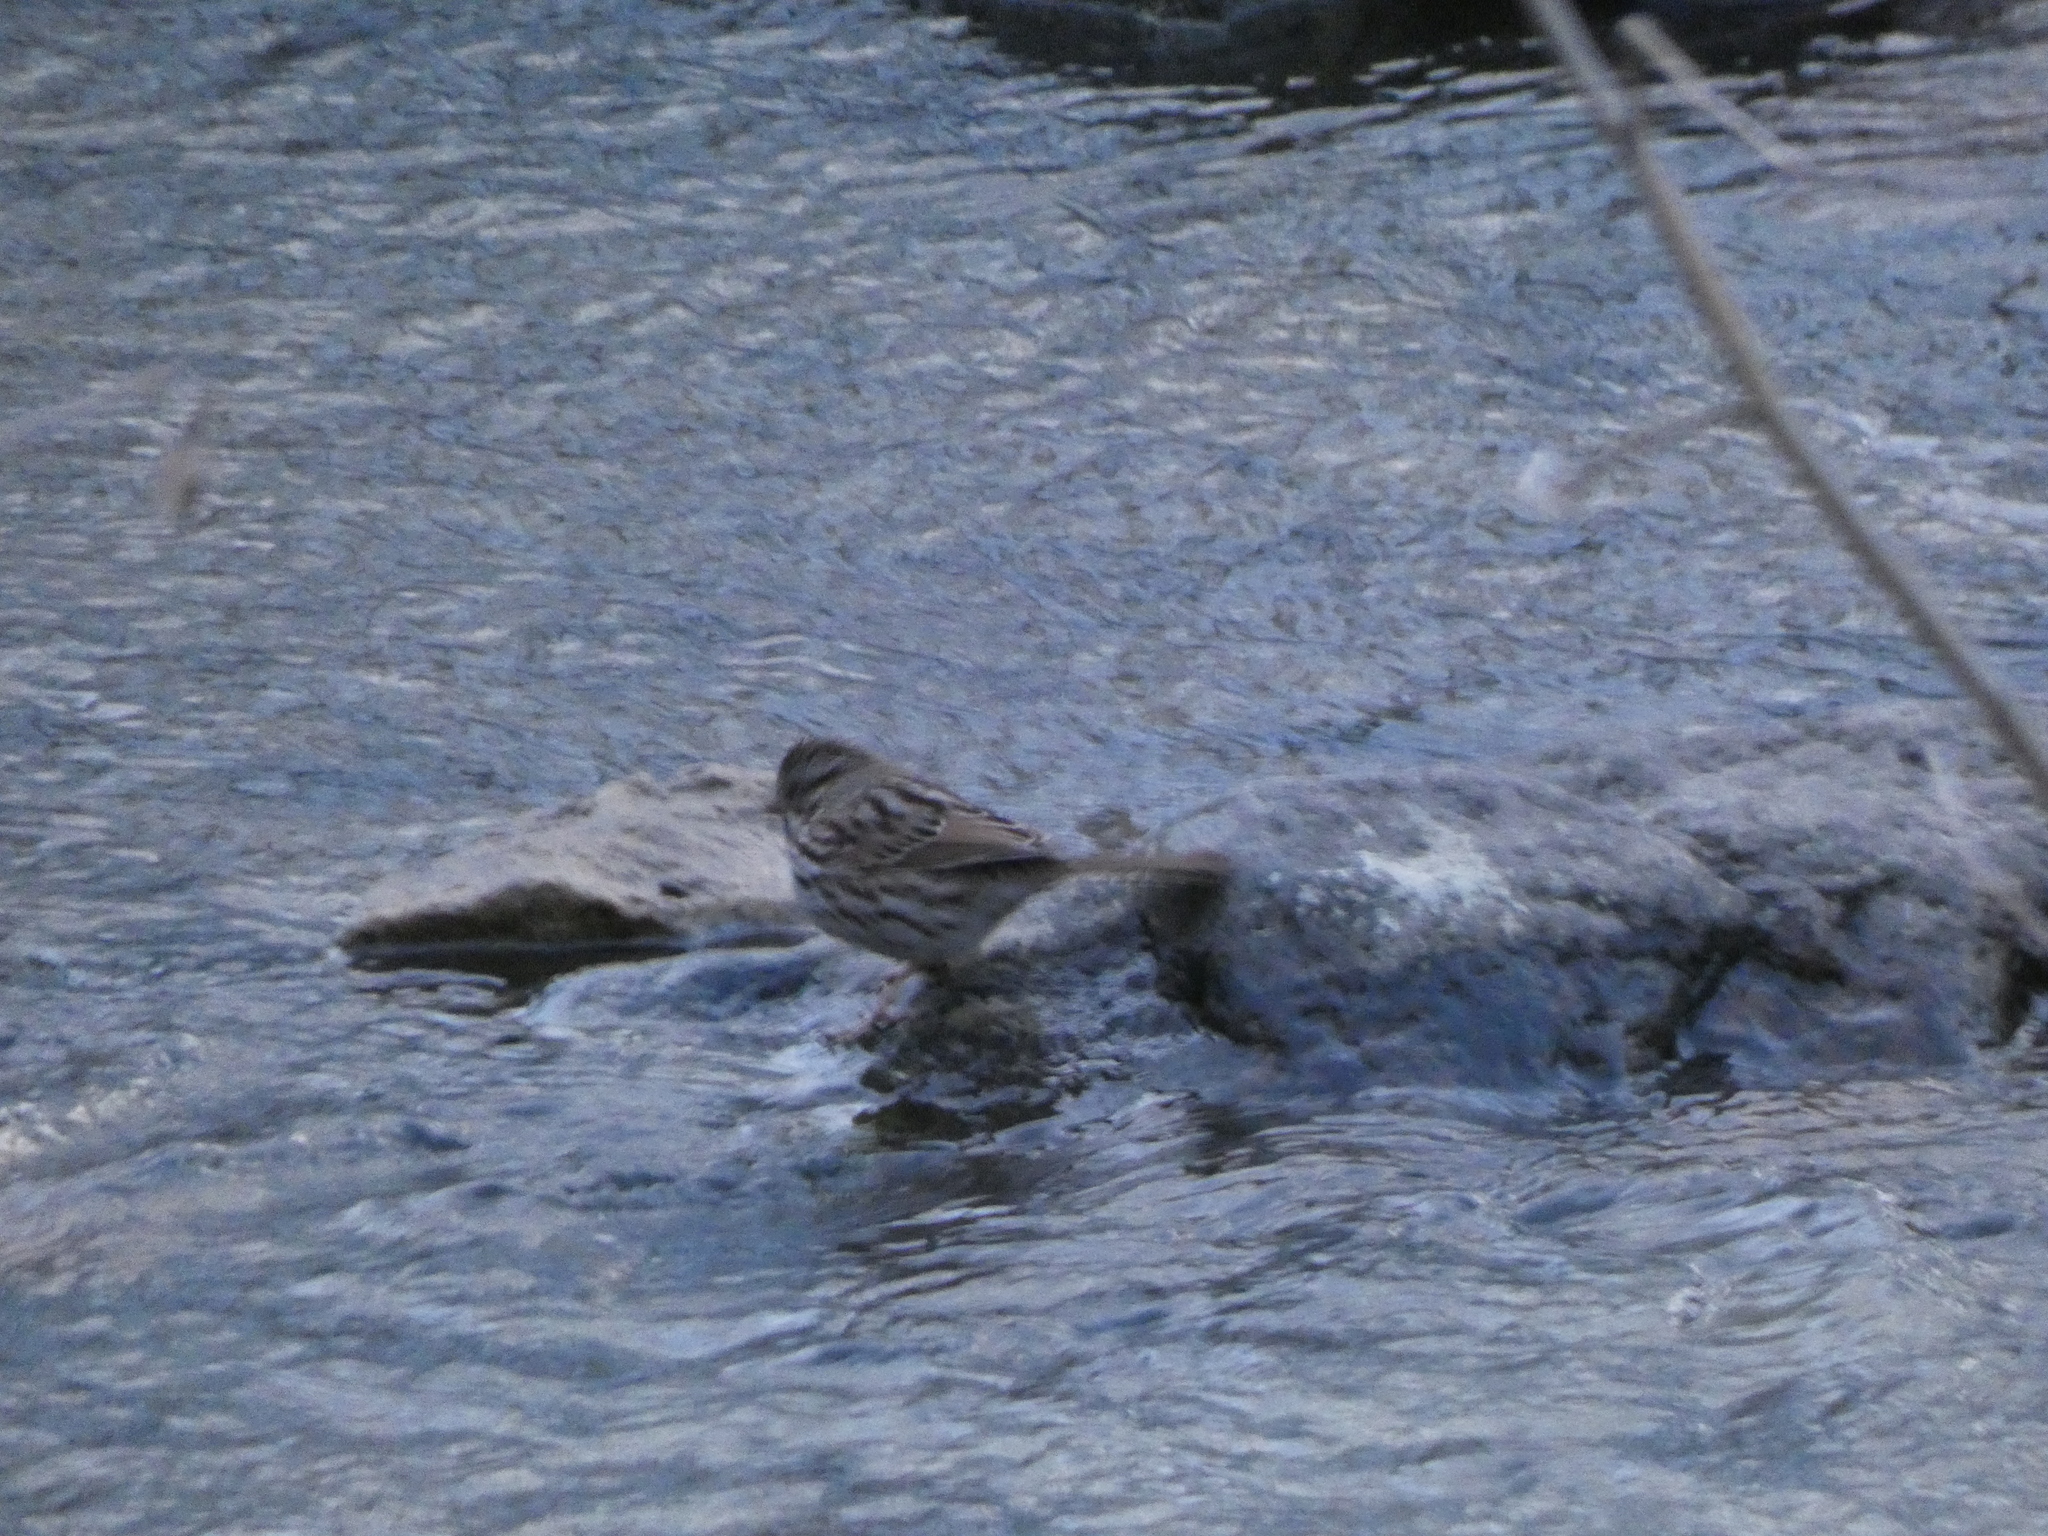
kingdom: Animalia
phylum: Chordata
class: Aves
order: Passeriformes
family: Passerellidae
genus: Melospiza
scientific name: Melospiza melodia
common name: Song sparrow
